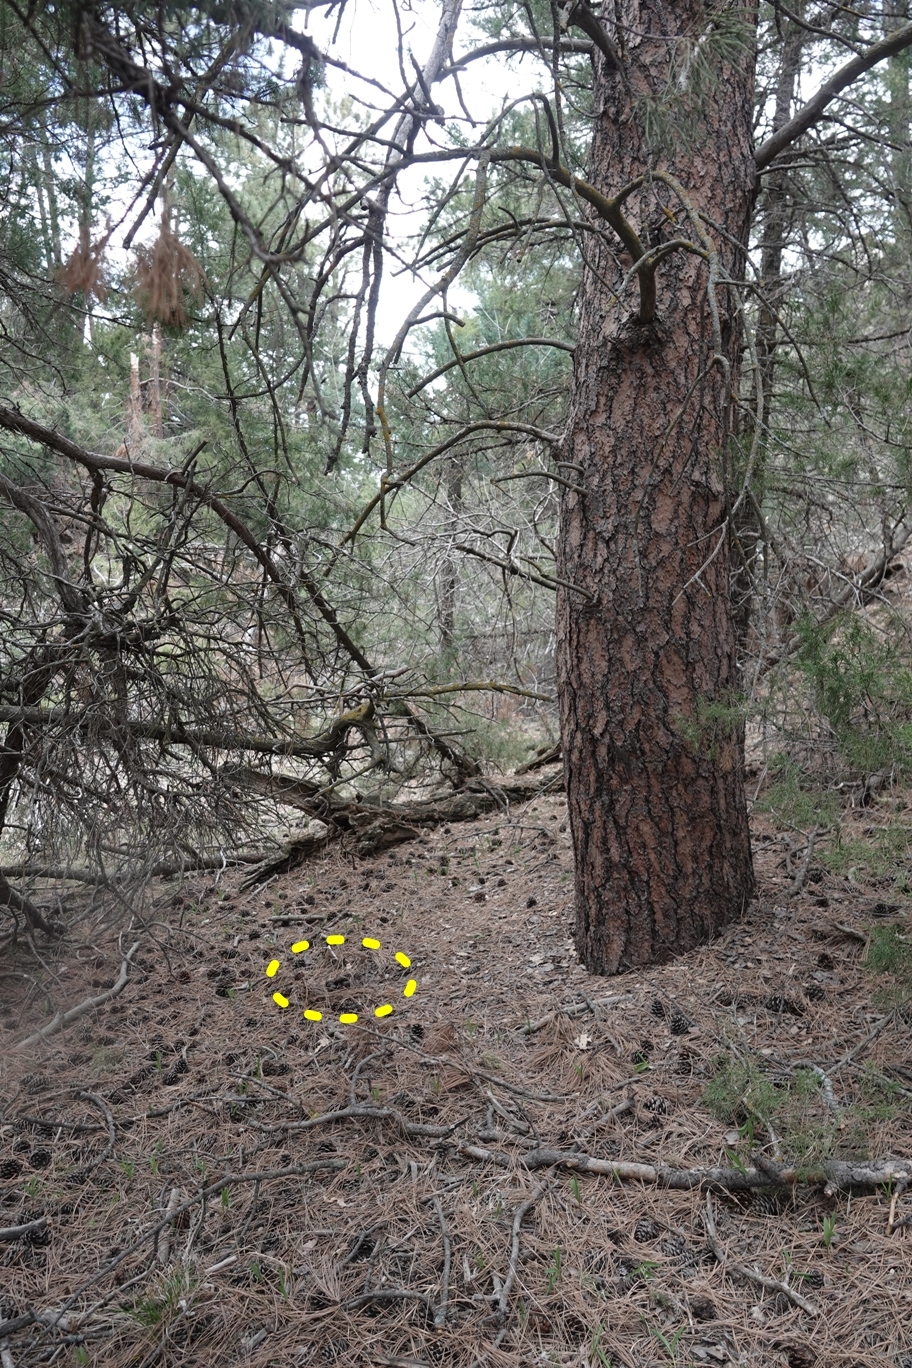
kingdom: Animalia
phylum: Chordata
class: Mammalia
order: Carnivora
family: Felidae
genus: Puma
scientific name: Puma concolor
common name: Puma
